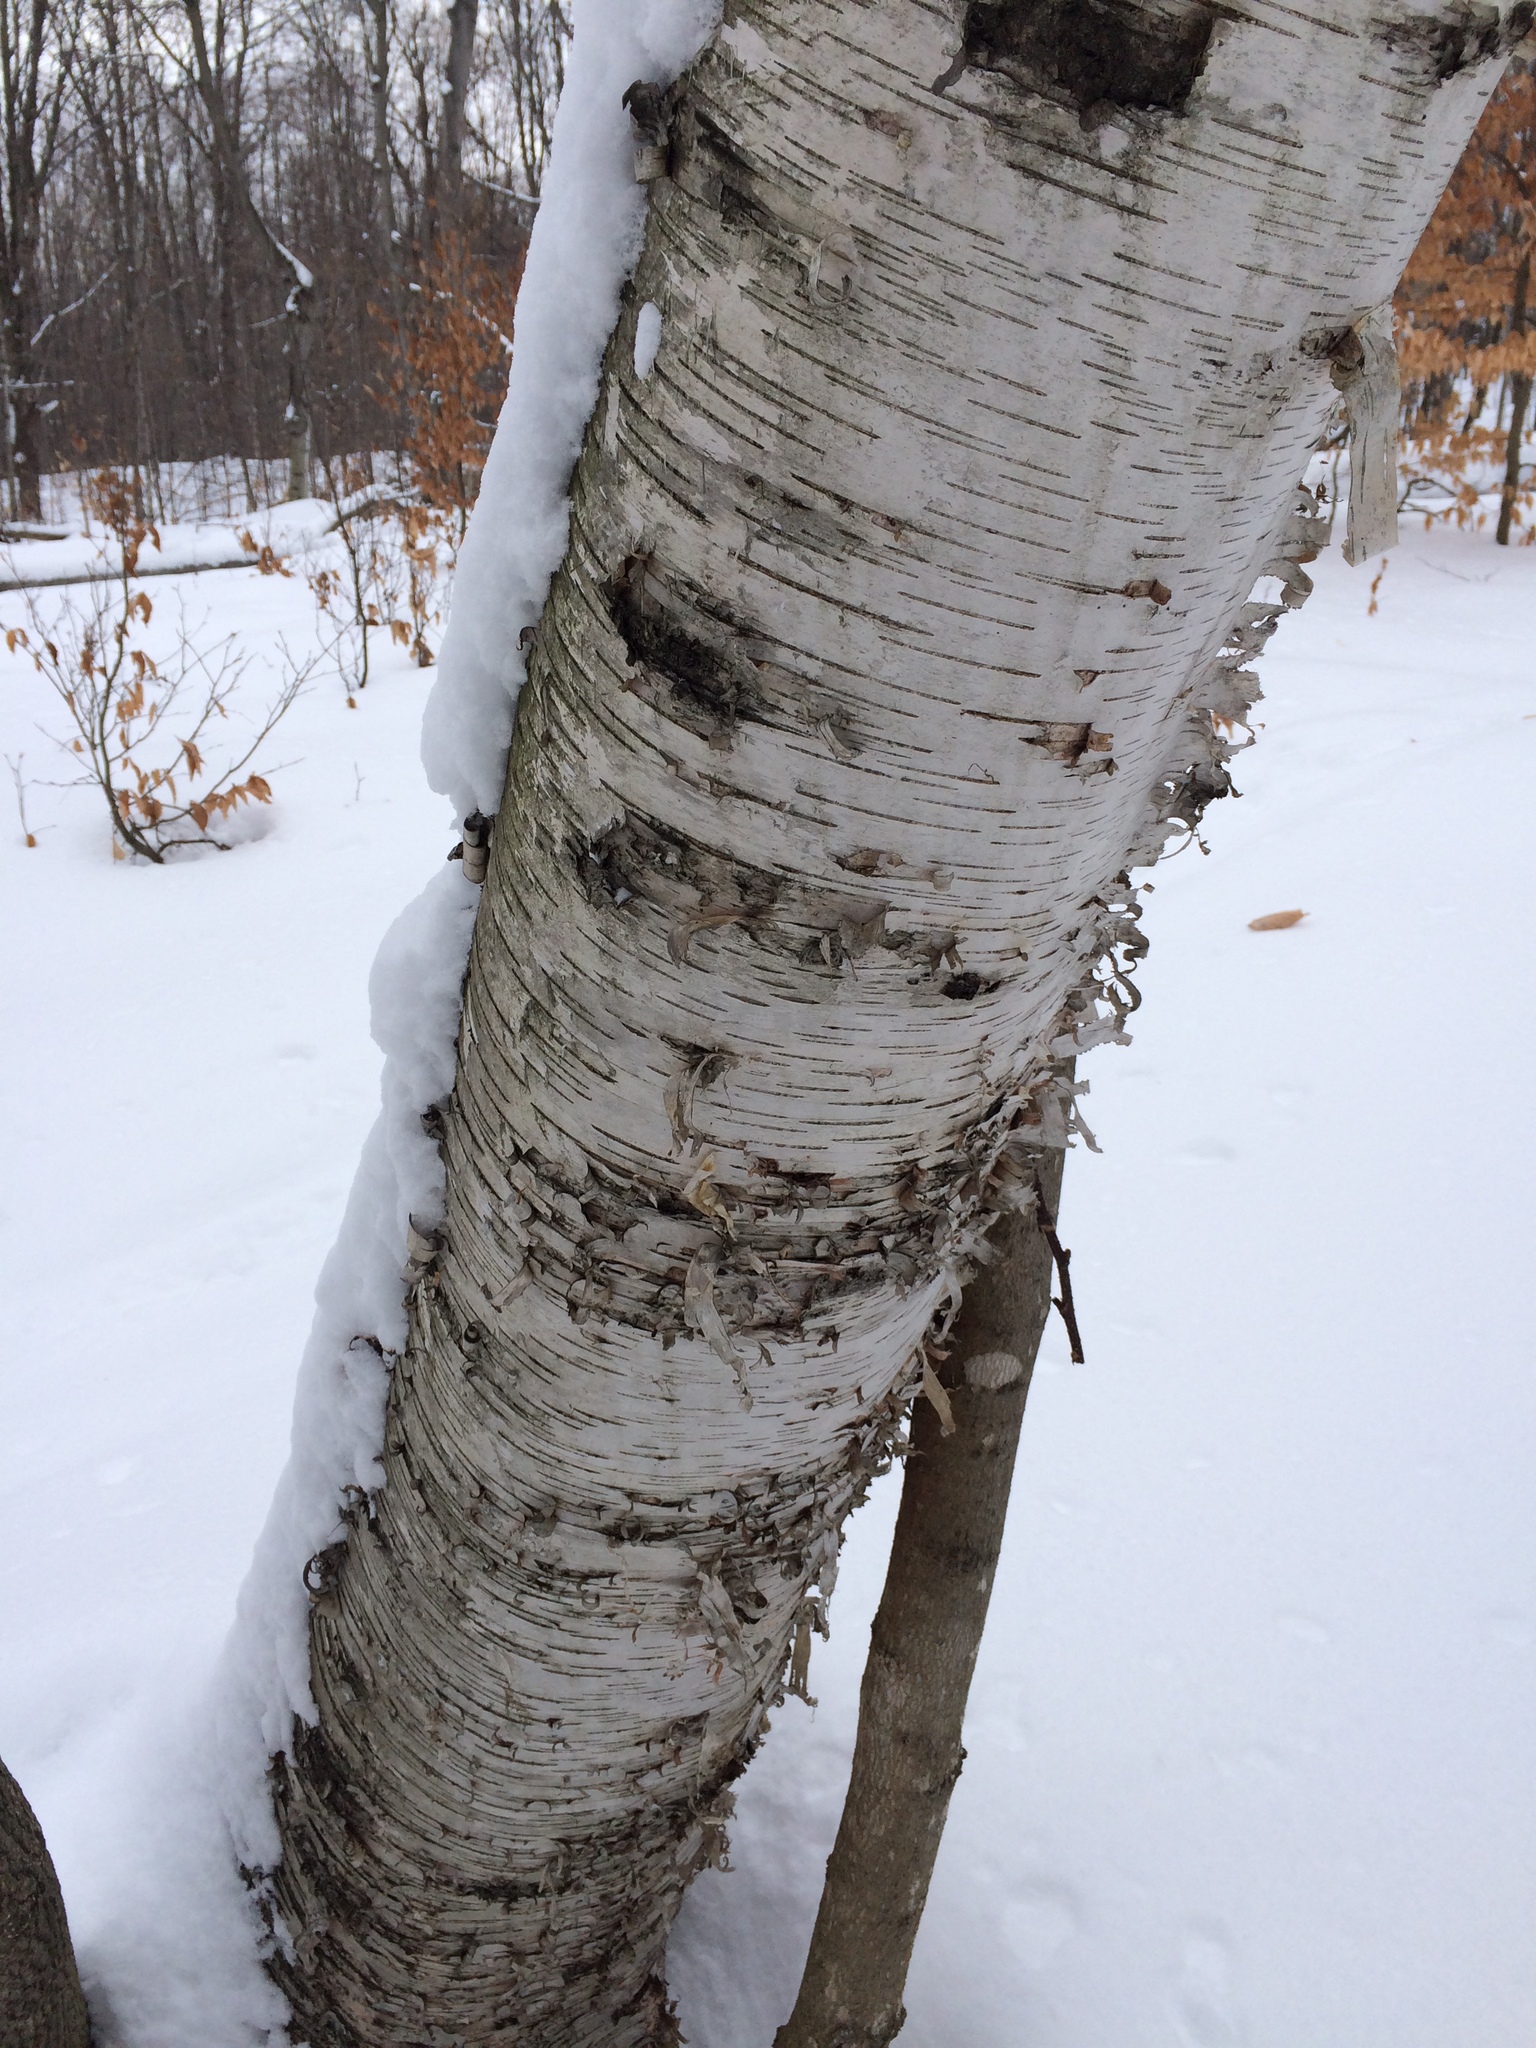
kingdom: Plantae
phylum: Tracheophyta
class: Magnoliopsida
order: Fagales
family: Betulaceae
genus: Betula
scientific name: Betula papyrifera
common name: Paper birch
